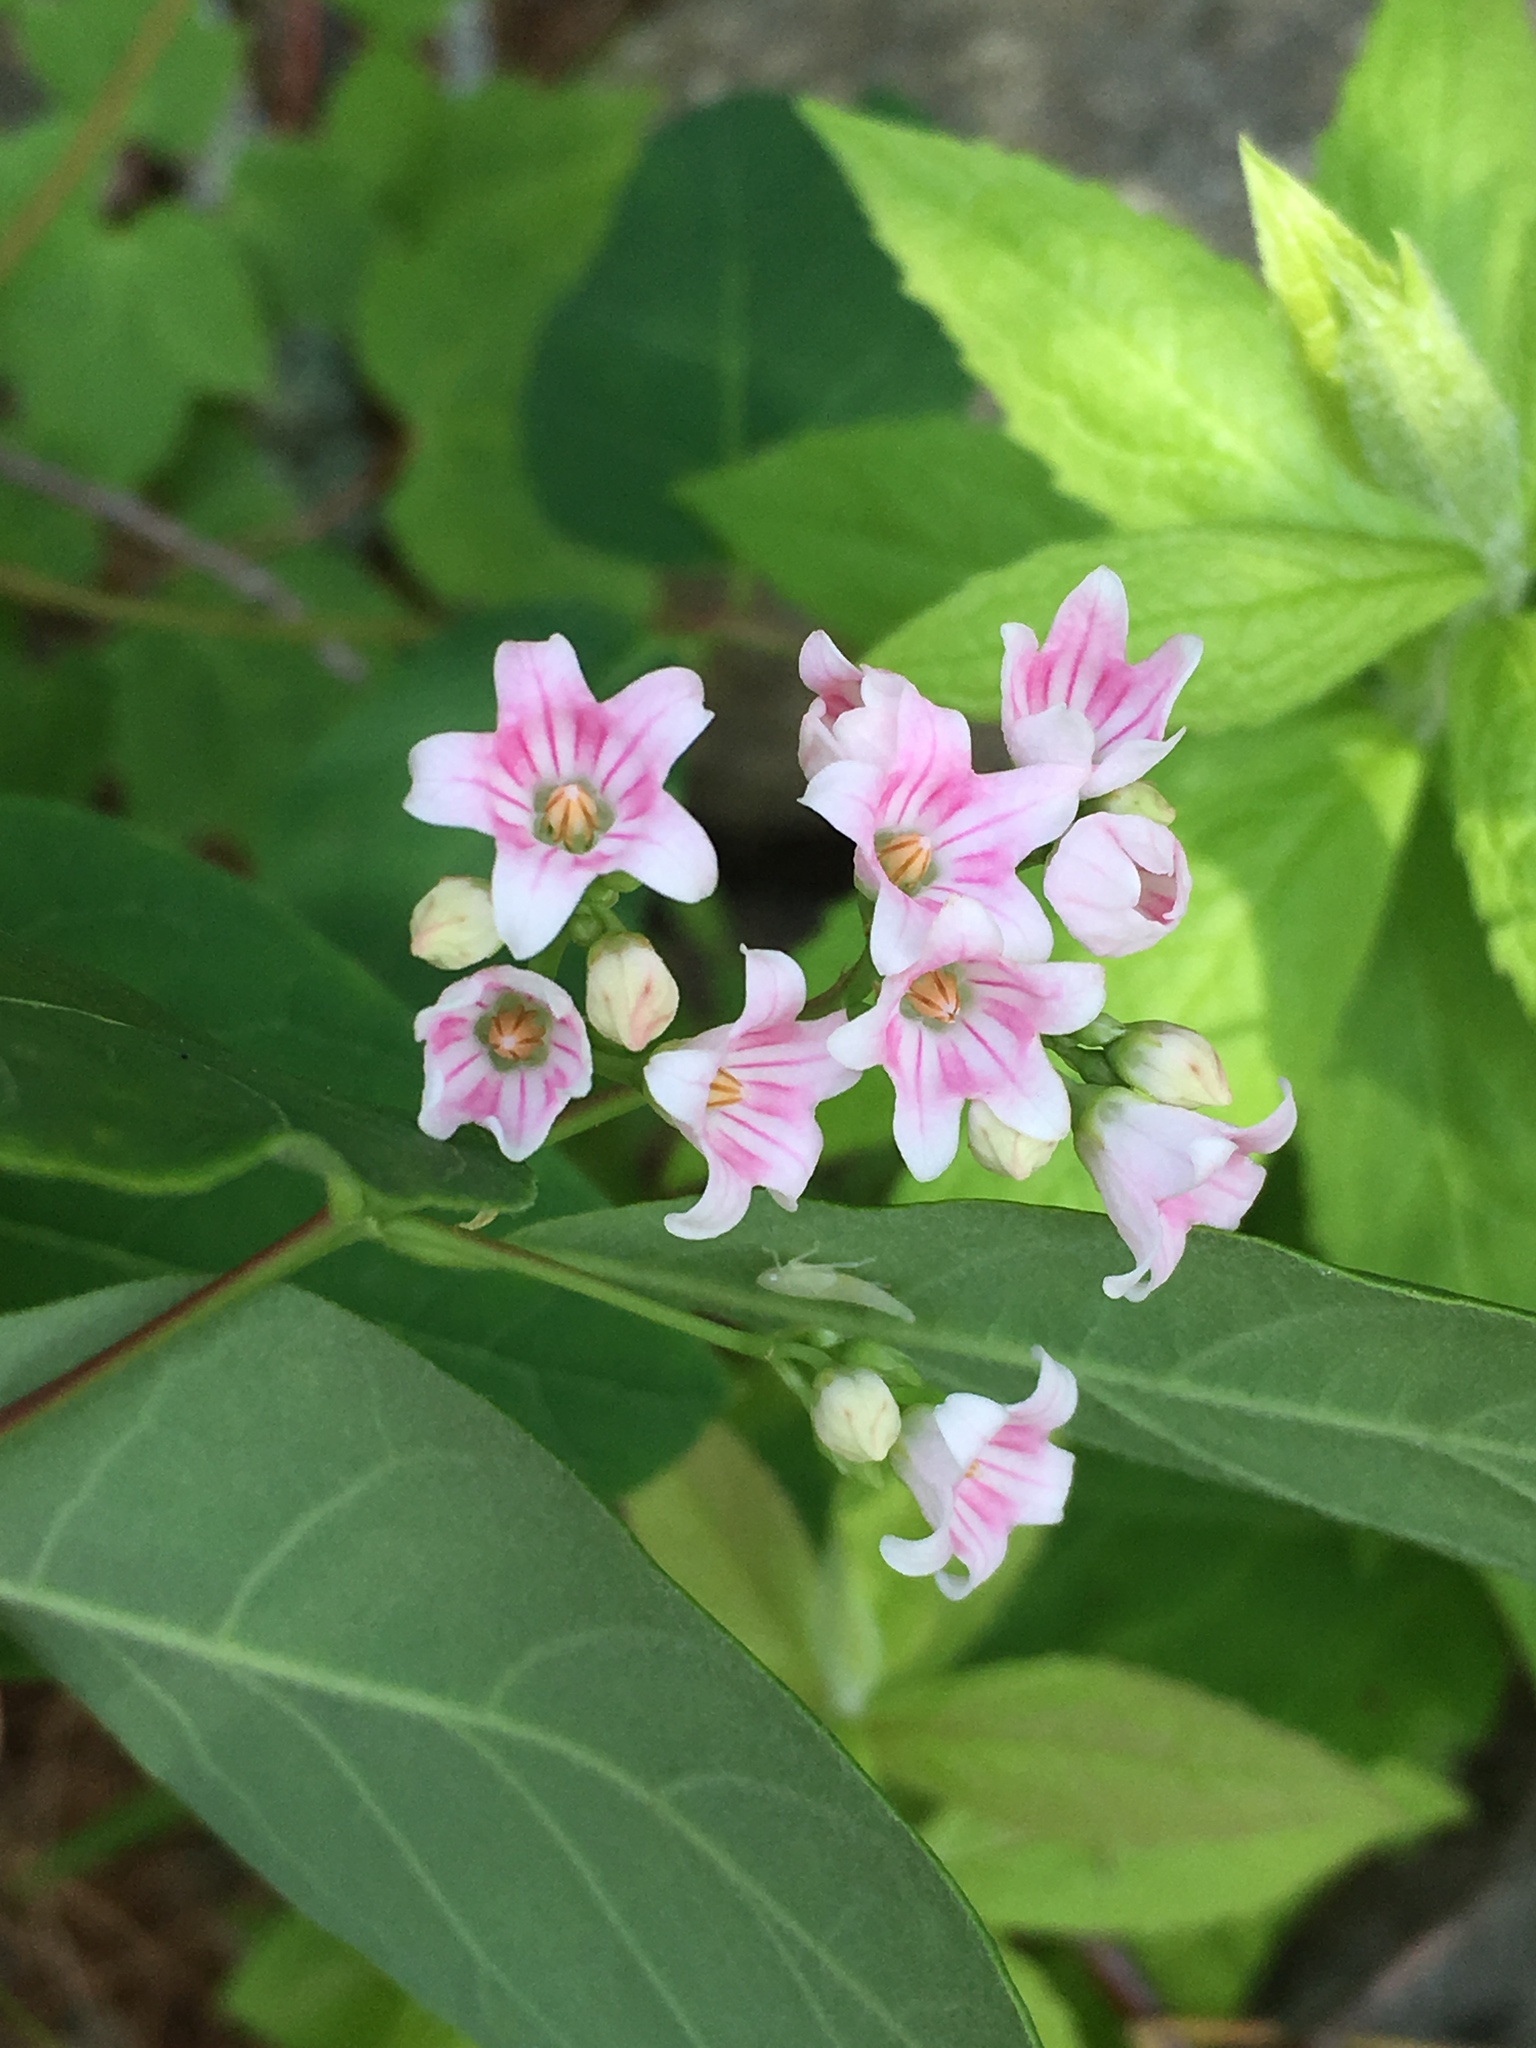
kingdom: Plantae
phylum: Tracheophyta
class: Magnoliopsida
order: Gentianales
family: Apocynaceae
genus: Apocynum
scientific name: Apocynum androsaemifolium
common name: Spreading dogbane
